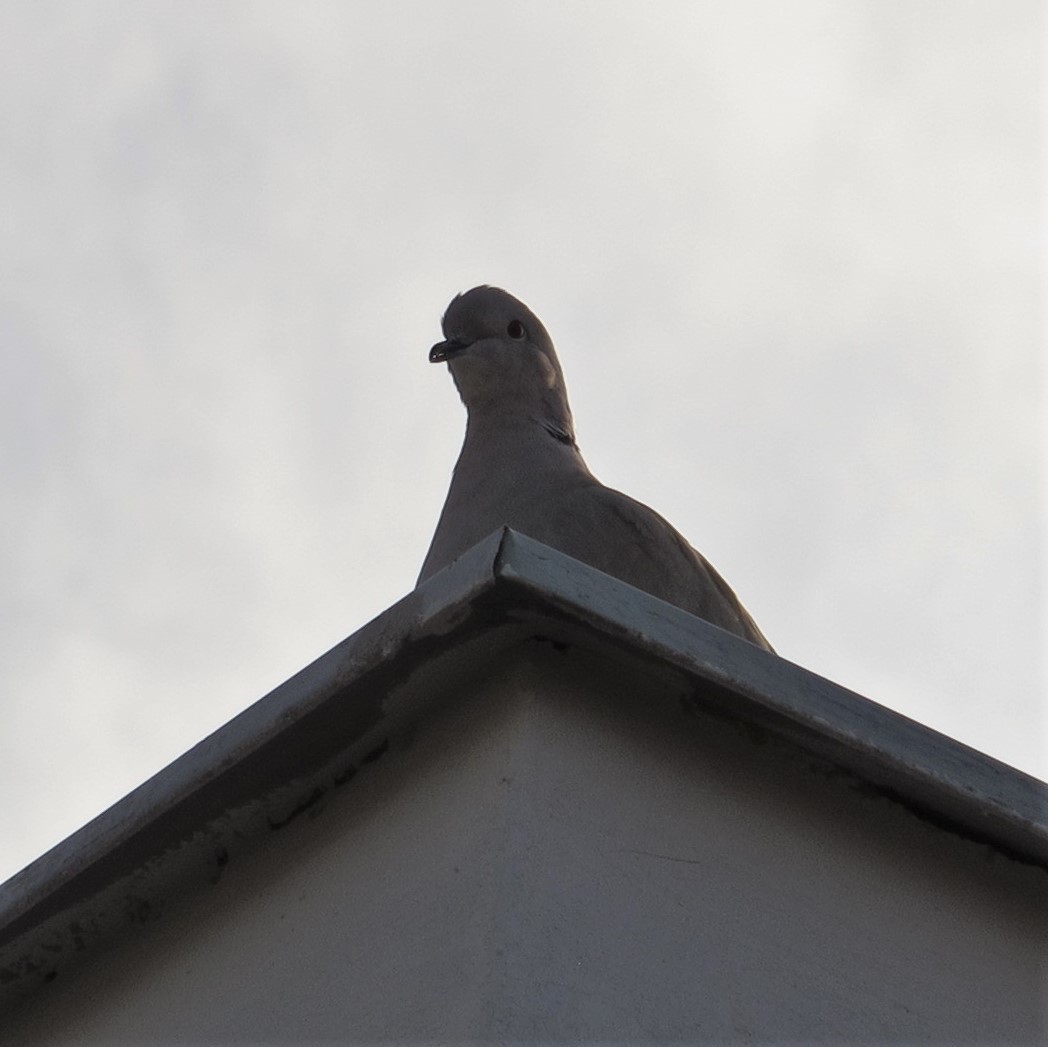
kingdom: Animalia
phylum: Chordata
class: Aves
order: Columbiformes
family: Columbidae
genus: Streptopelia
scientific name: Streptopelia decaocto
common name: Eurasian collared dove
